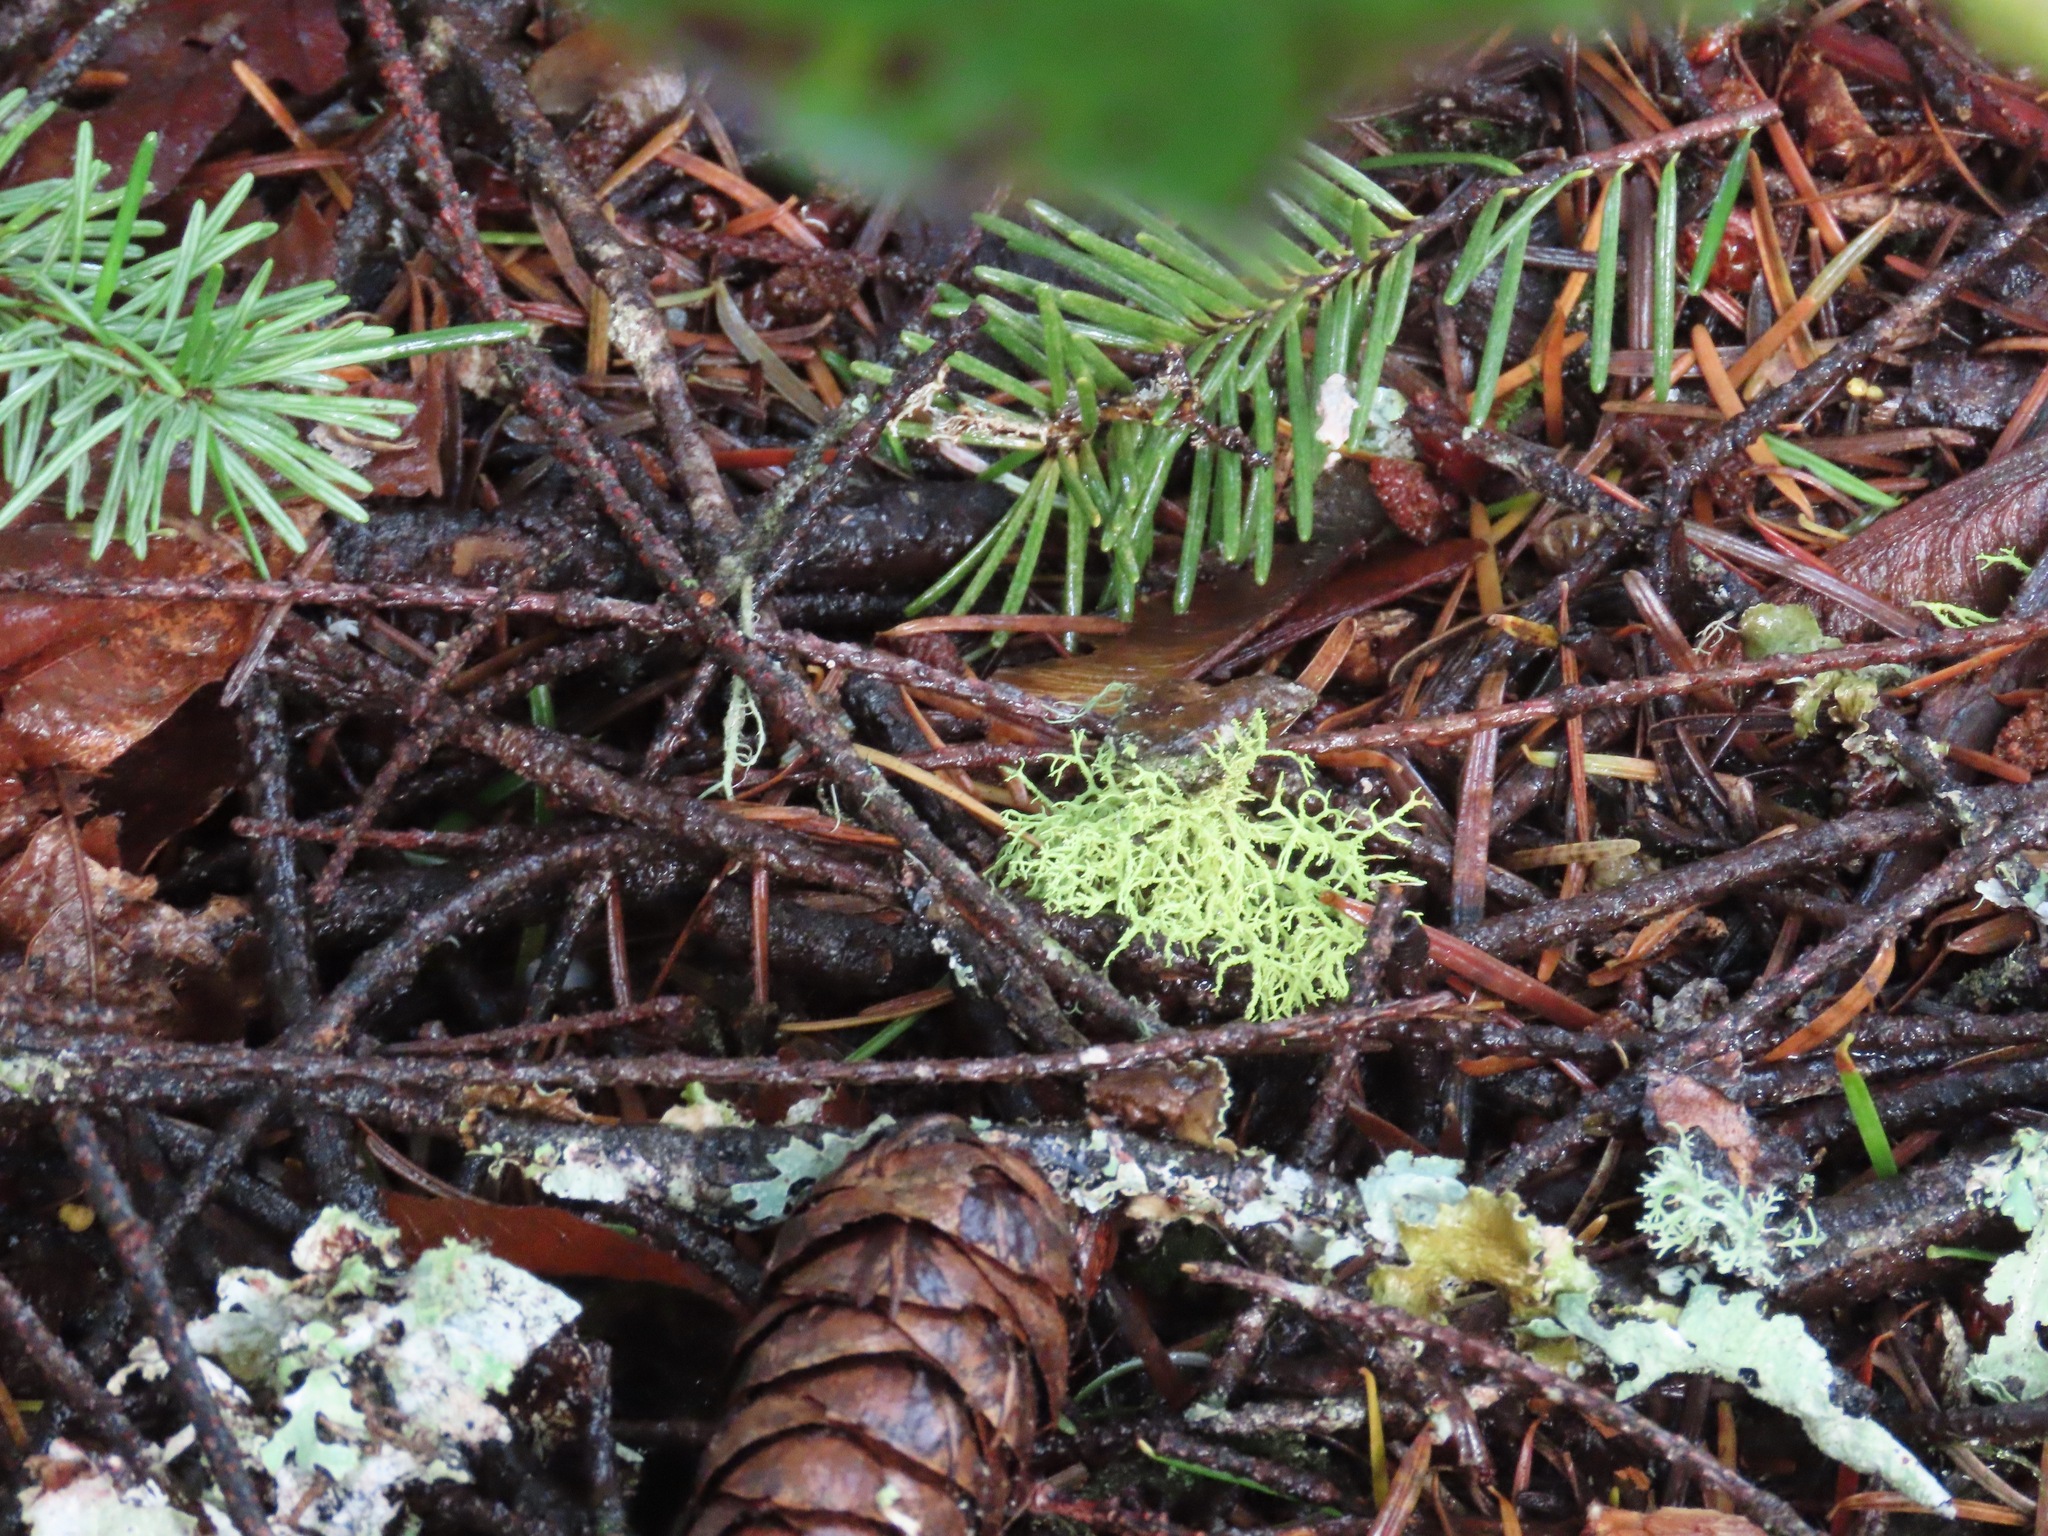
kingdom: Fungi
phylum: Ascomycota
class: Lecanoromycetes
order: Lecanorales
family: Parmeliaceae
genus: Letharia
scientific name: Letharia vulpina
